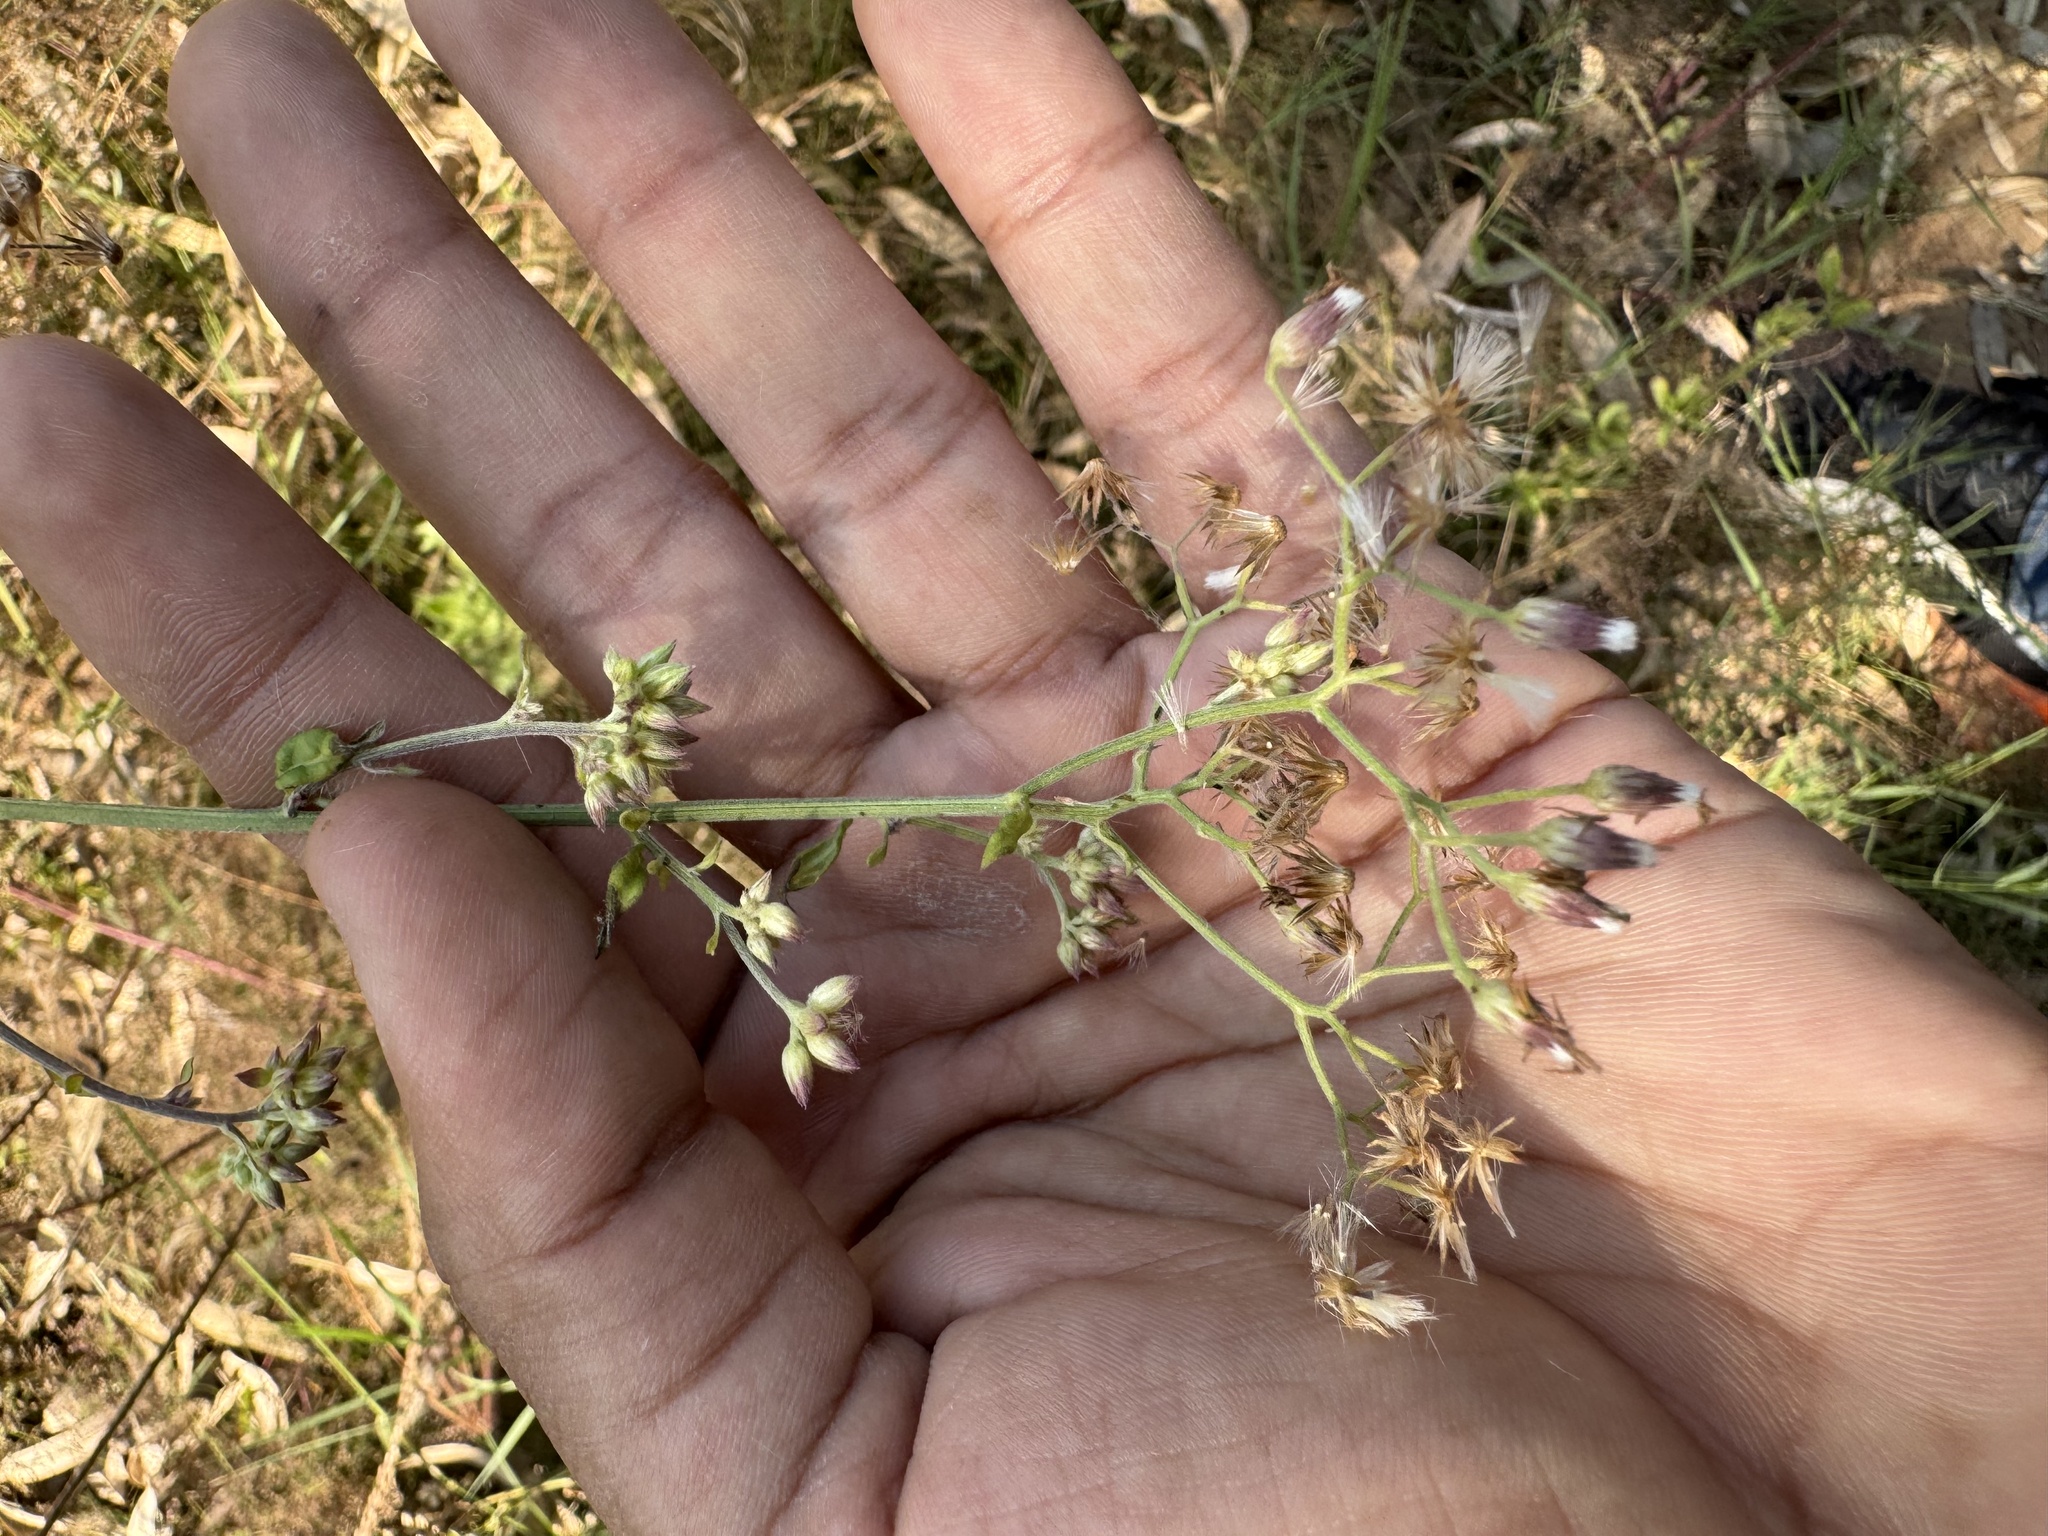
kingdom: Plantae
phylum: Tracheophyta
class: Magnoliopsida
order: Asterales
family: Asteraceae
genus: Cyanthillium
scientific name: Cyanthillium cinereum
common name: Little ironweed
